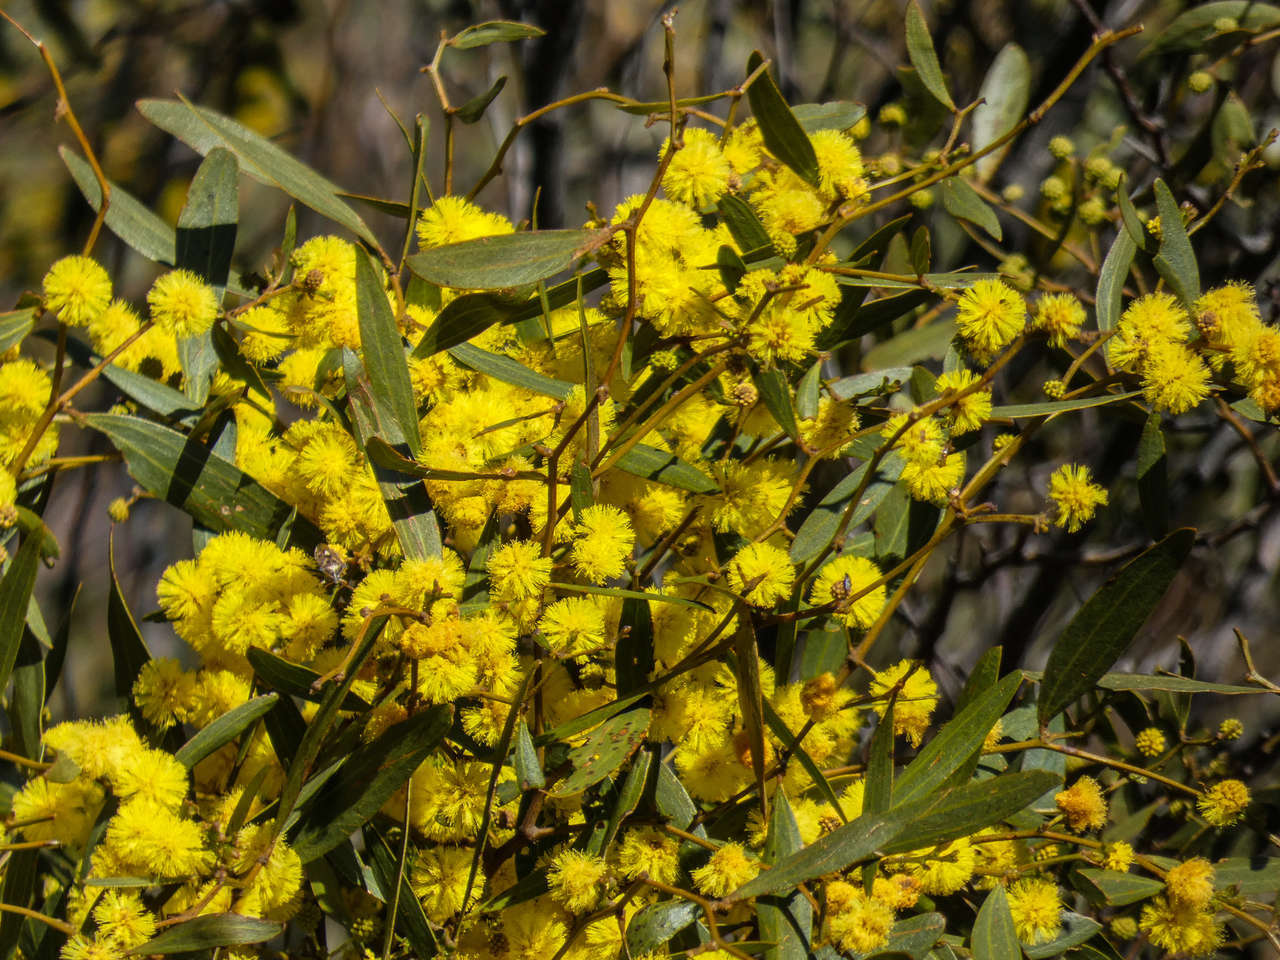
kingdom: Plantae
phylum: Tracheophyta
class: Magnoliopsida
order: Fabales
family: Fabaceae
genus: Acacia
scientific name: Acacia verniciflua
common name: Varnish wattle
